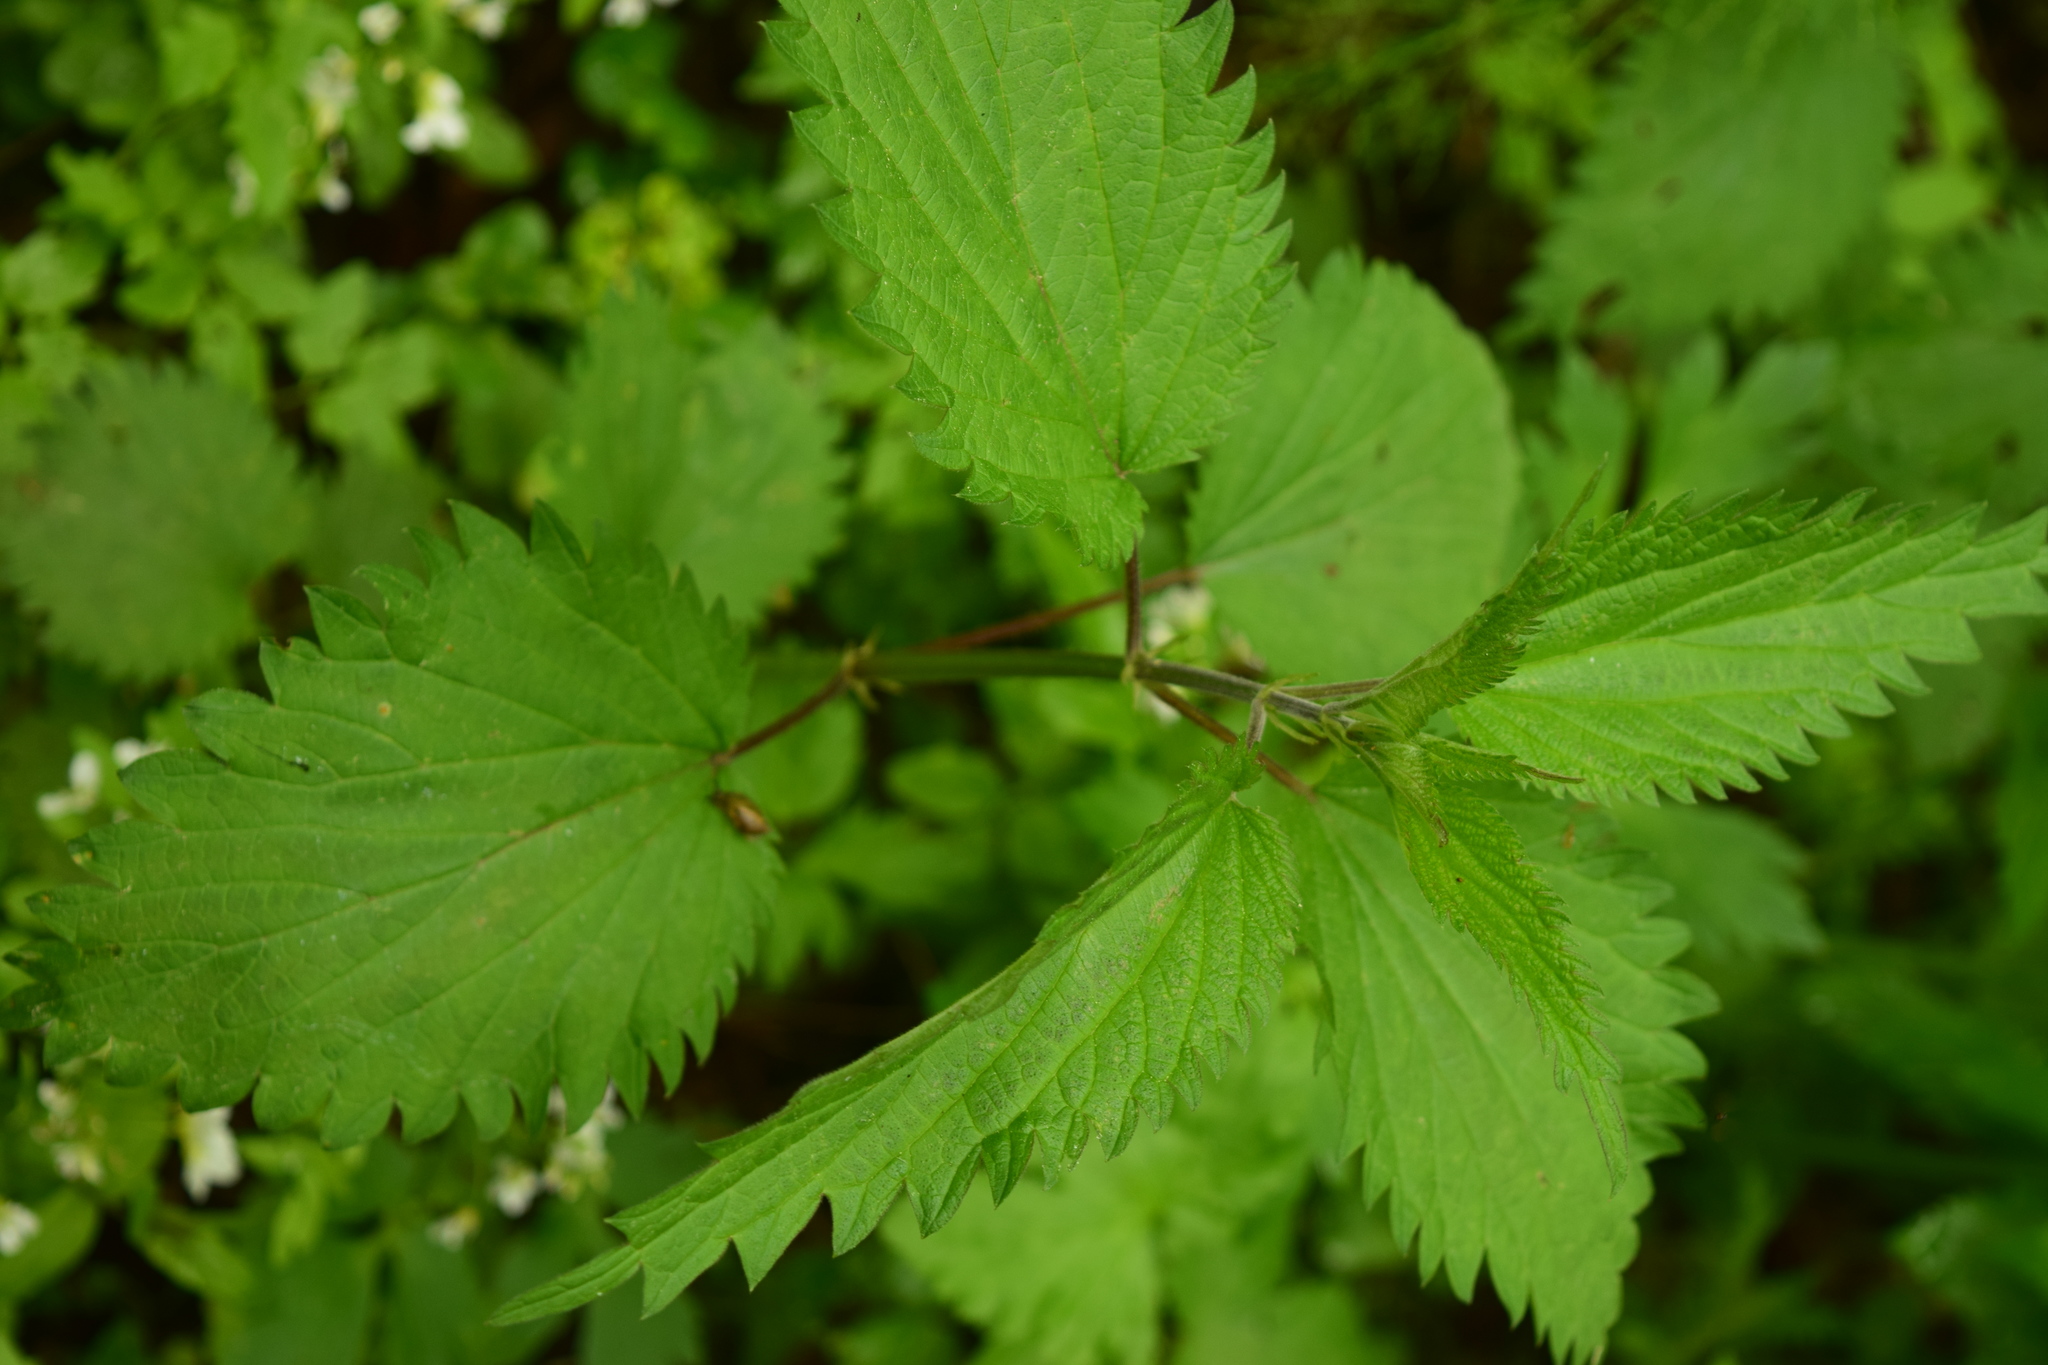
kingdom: Plantae
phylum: Tracheophyta
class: Magnoliopsida
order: Rosales
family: Urticaceae
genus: Urtica
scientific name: Urtica dioica
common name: Common nettle
